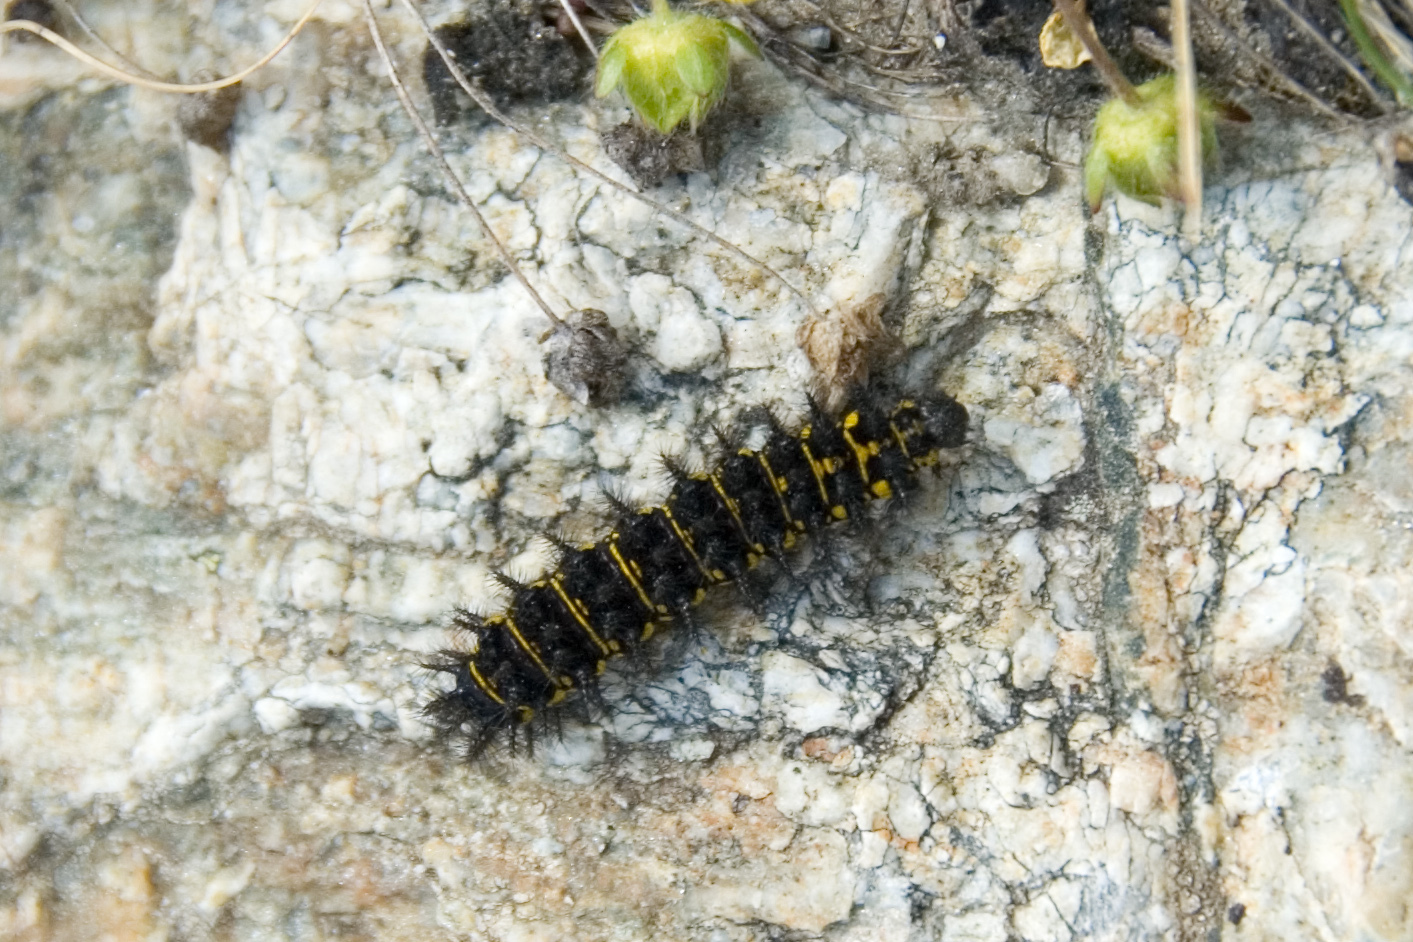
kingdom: Animalia
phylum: Arthropoda
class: Insecta
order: Lepidoptera
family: Nymphalidae
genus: Hypodryas
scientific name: Hypodryas cynthia
